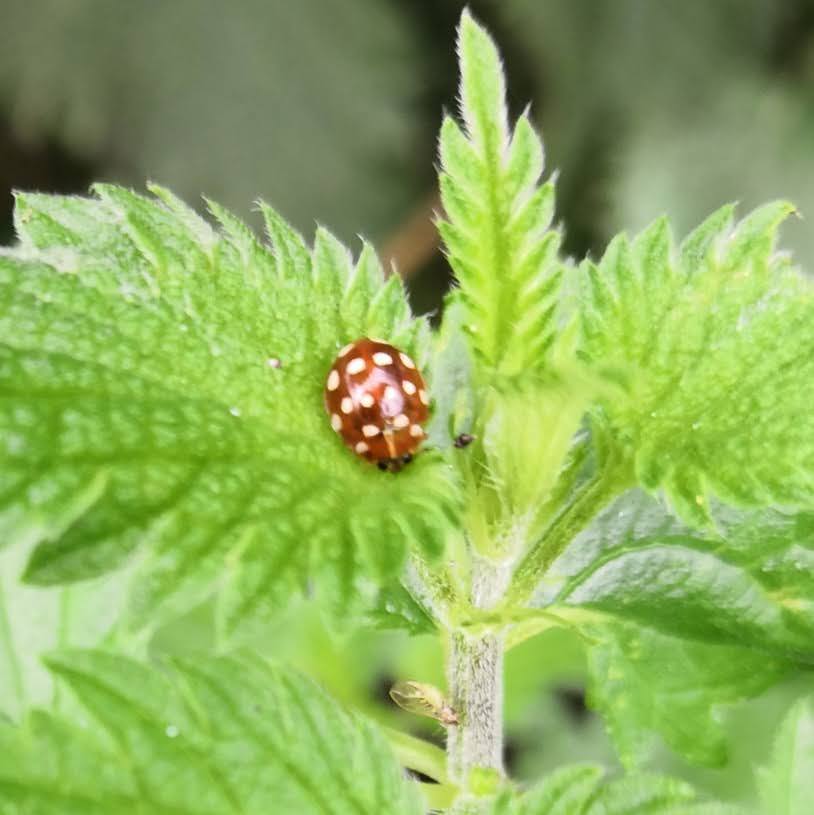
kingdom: Animalia
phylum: Arthropoda
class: Insecta
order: Coleoptera
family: Coccinellidae
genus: Calvia
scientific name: Calvia quatuordecimguttata
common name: Cream-spot ladybird
